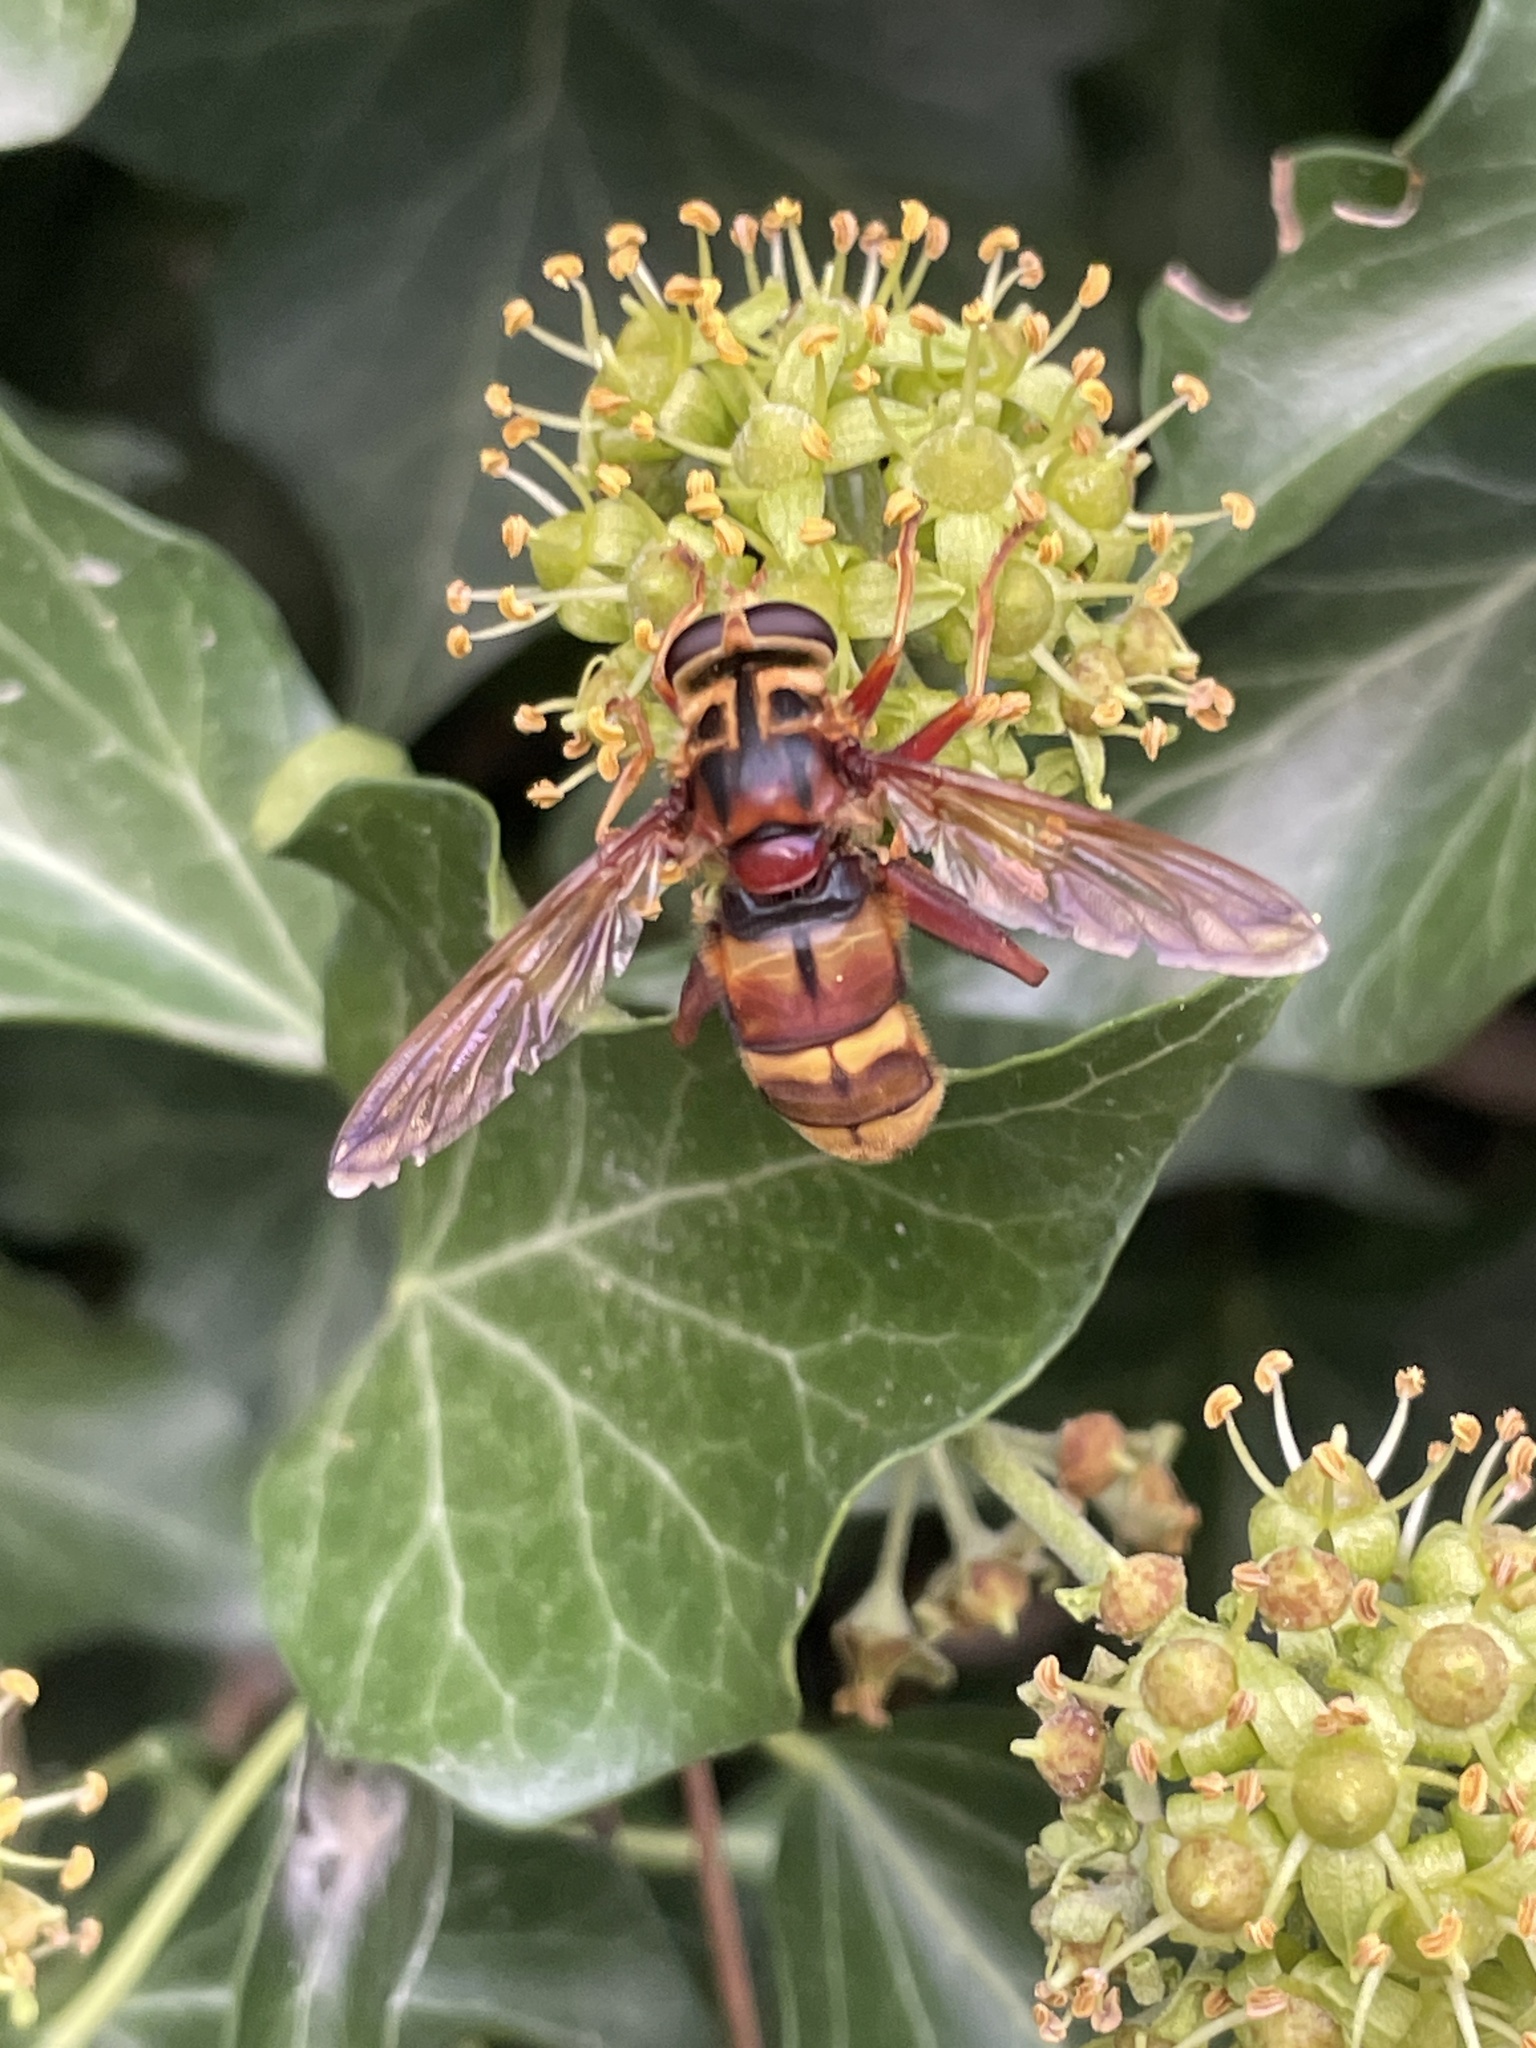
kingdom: Animalia
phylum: Arthropoda
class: Insecta
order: Diptera
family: Syrphidae
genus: Milesia
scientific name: Milesia crabroniformis
